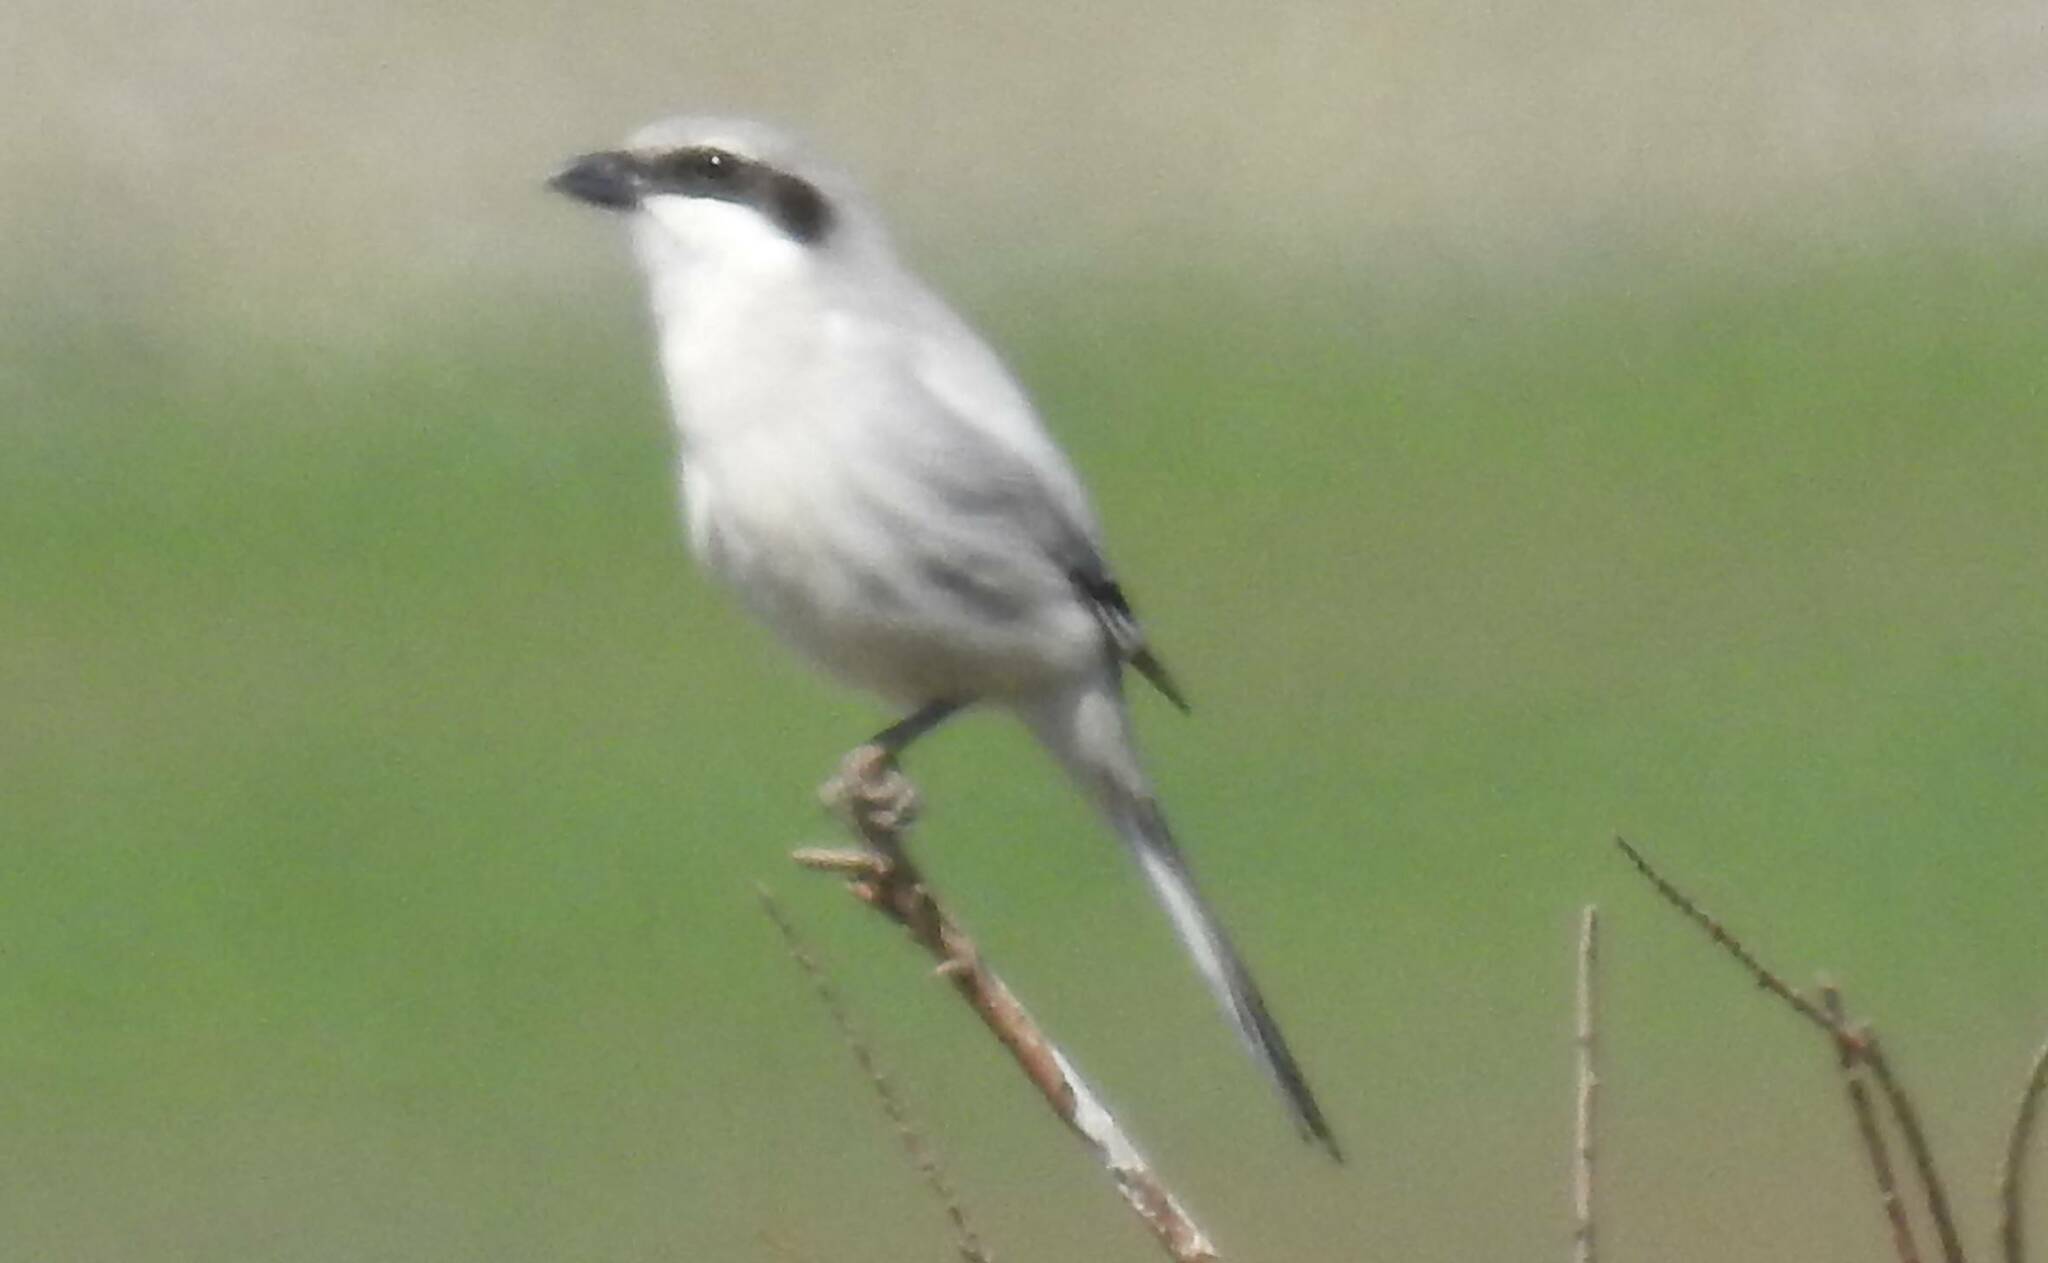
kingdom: Animalia
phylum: Chordata
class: Aves
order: Passeriformes
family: Laniidae
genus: Lanius
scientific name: Lanius excubitor
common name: Great grey shrike
